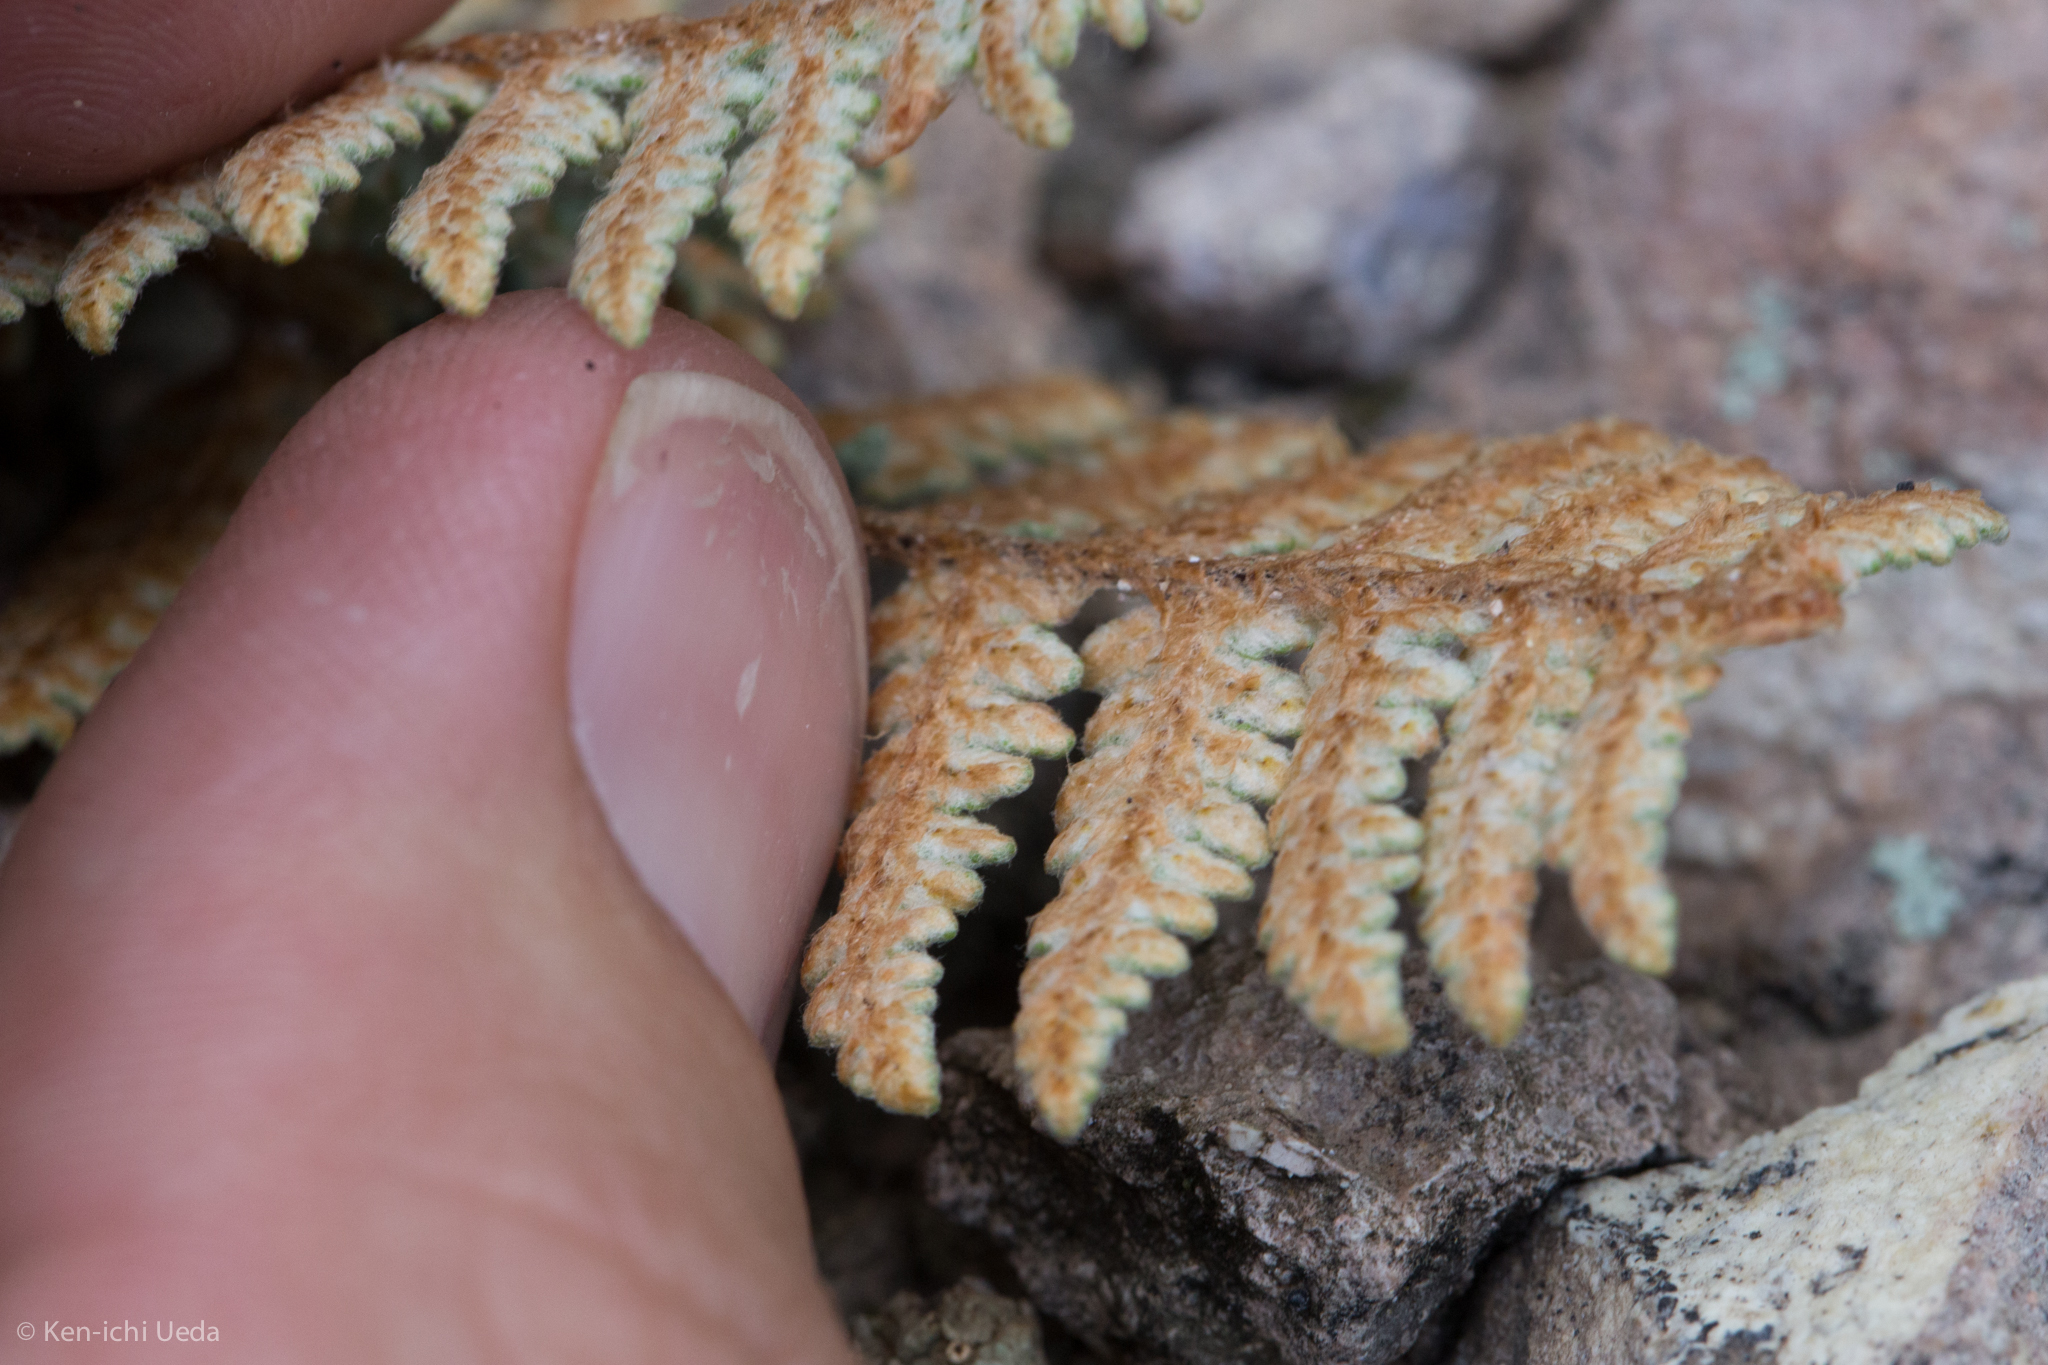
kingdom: Plantae
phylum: Tracheophyta
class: Polypodiopsida
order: Polypodiales
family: Pteridaceae
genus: Myriopteris
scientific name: Myriopteris lindheimeri
